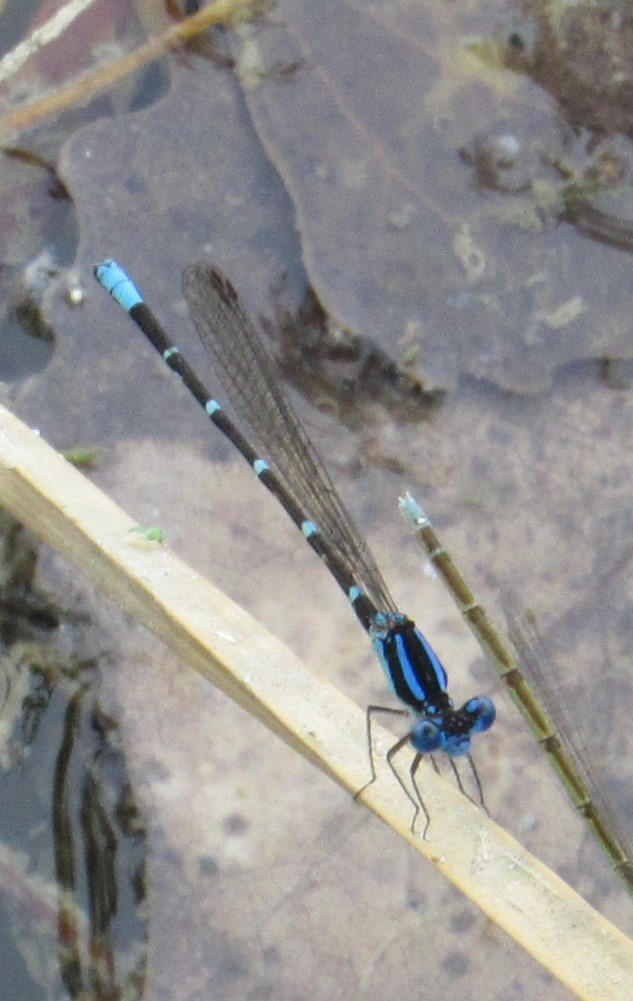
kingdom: Animalia
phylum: Arthropoda
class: Insecta
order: Odonata
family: Coenagrionidae
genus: Argia
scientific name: Argia sedula
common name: Blue-ringed dancer
